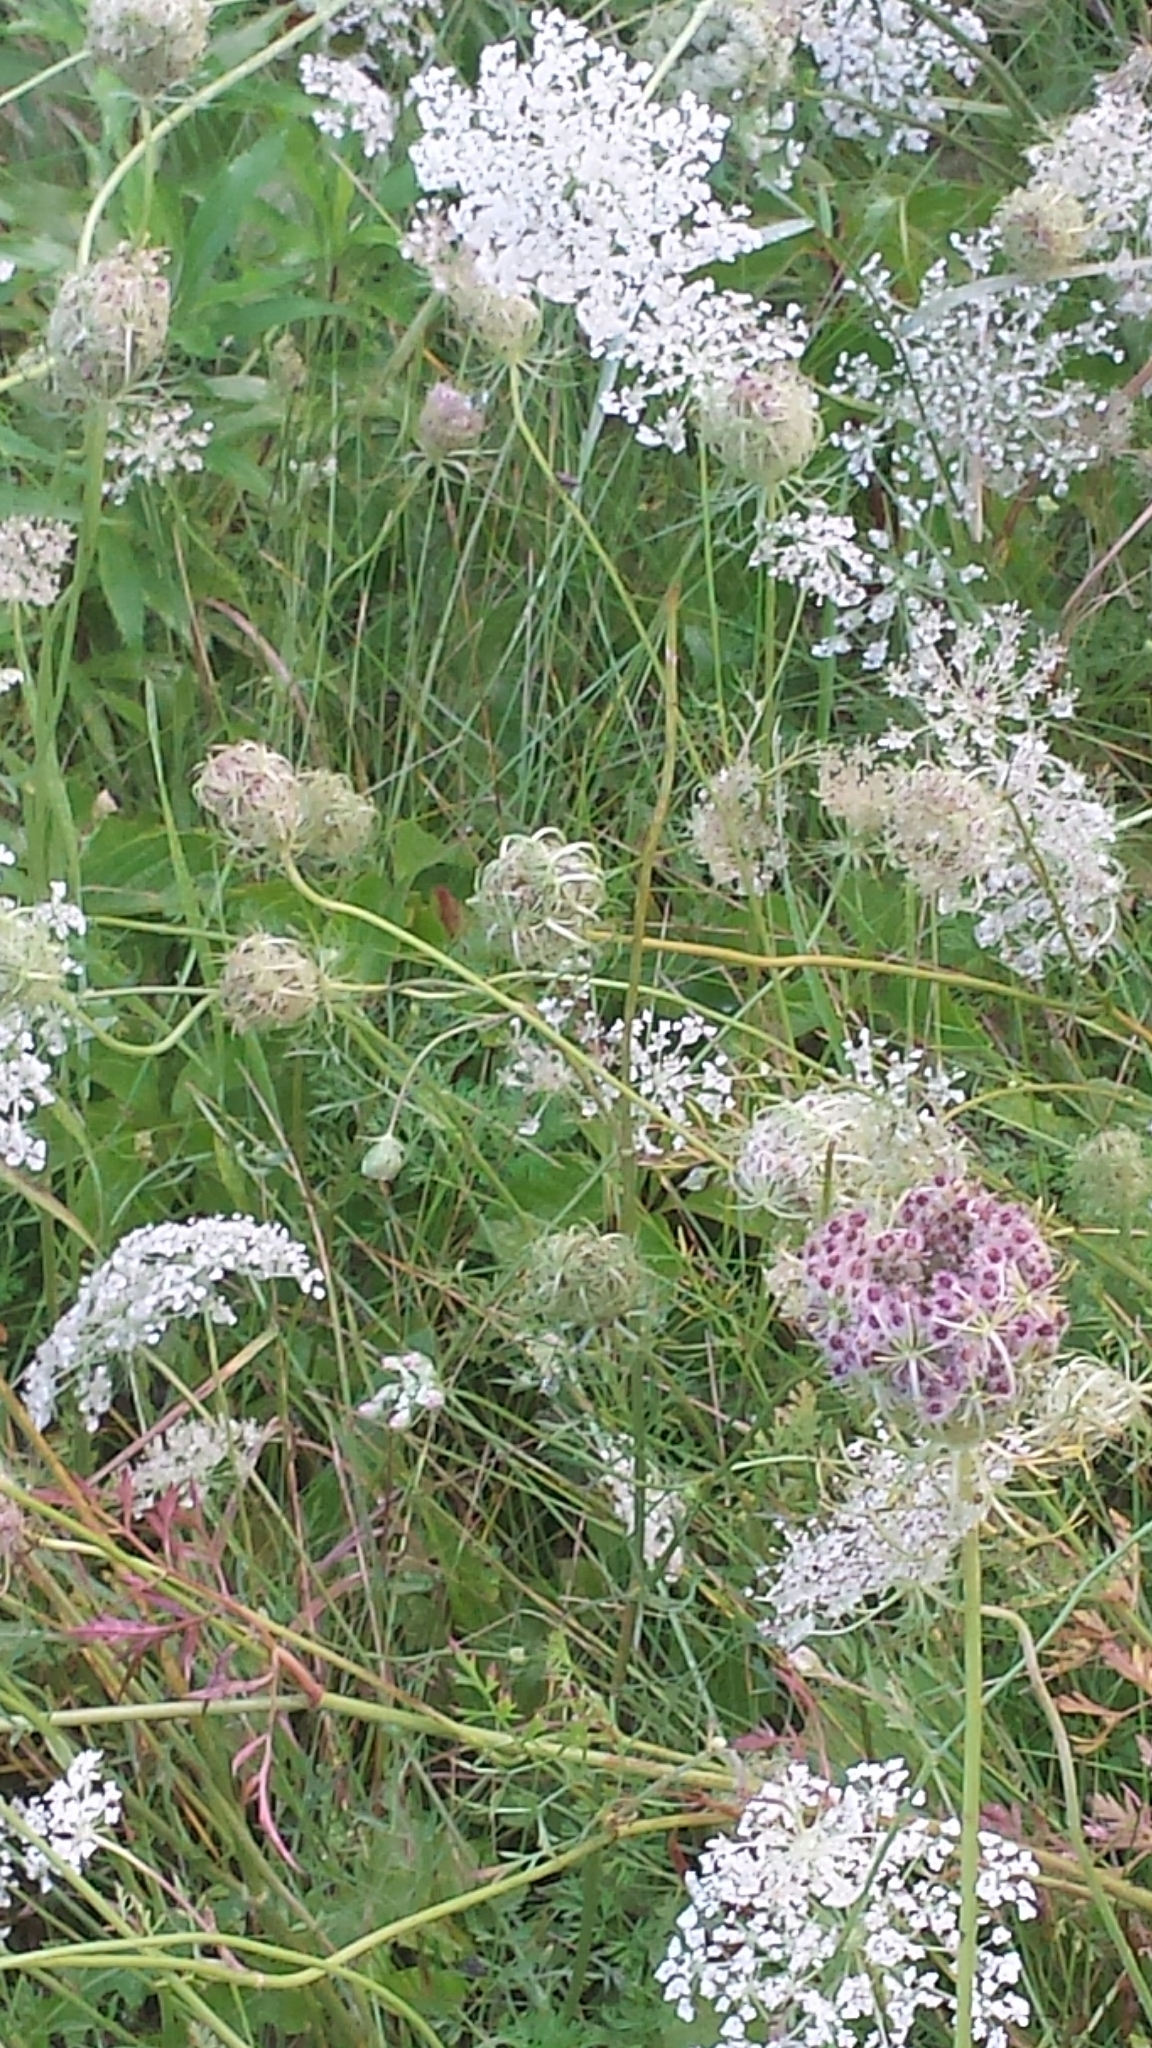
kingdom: Plantae
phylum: Tracheophyta
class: Magnoliopsida
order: Apiales
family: Apiaceae
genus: Daucus
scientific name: Daucus carota
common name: Wild carrot
